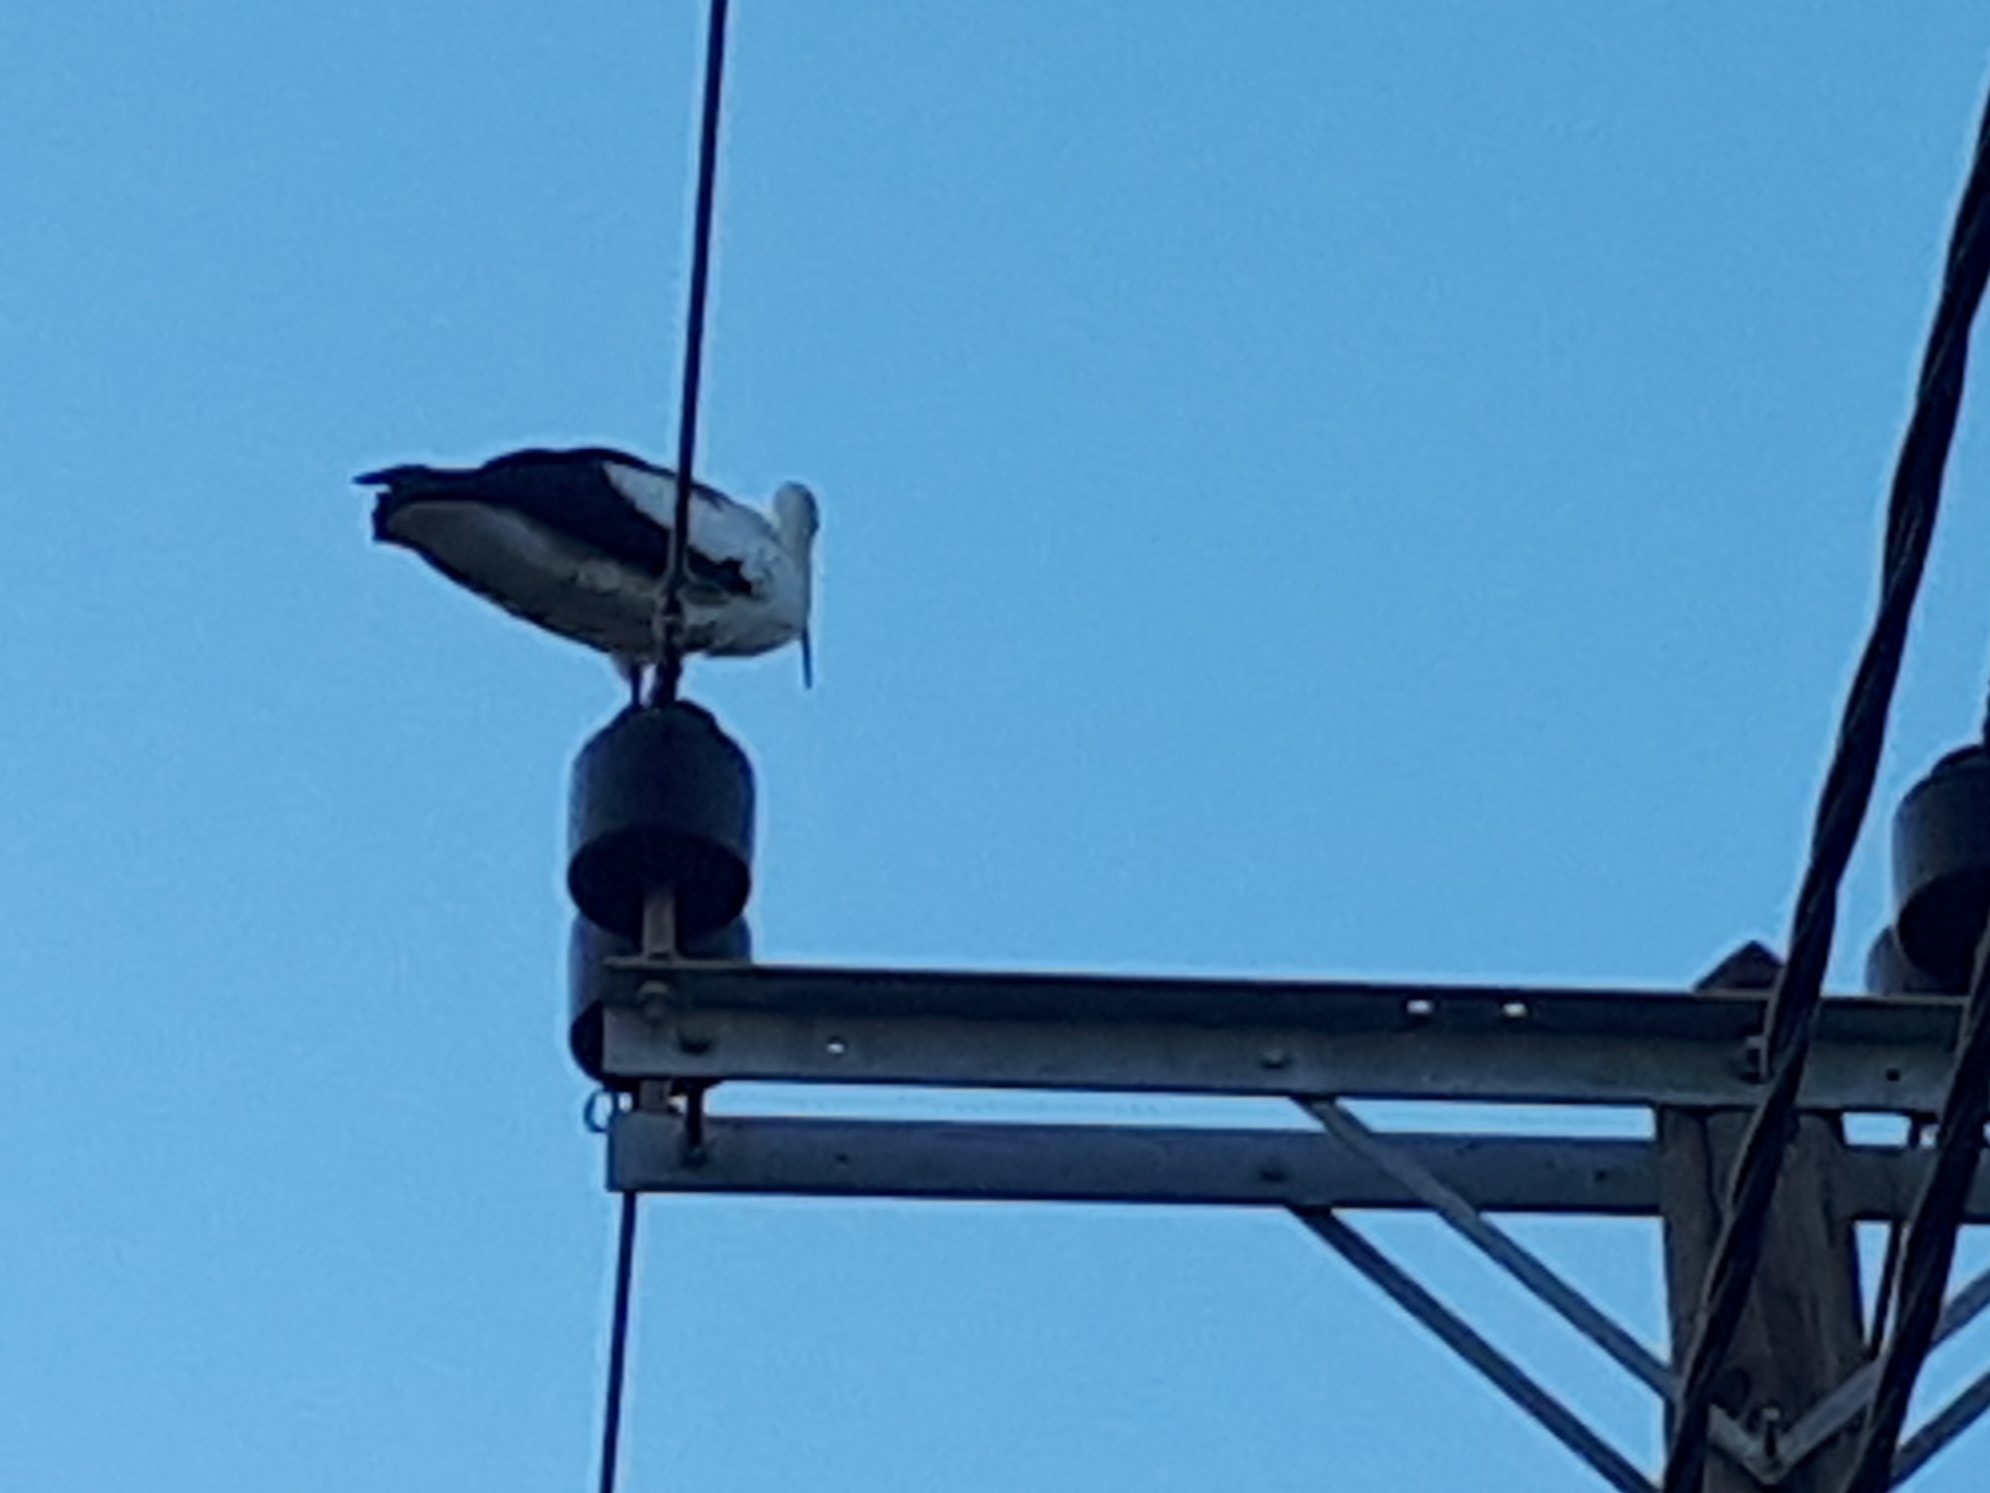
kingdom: Animalia
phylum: Chordata
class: Aves
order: Ciconiiformes
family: Ciconiidae
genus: Ciconia
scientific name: Ciconia ciconia
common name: White stork
